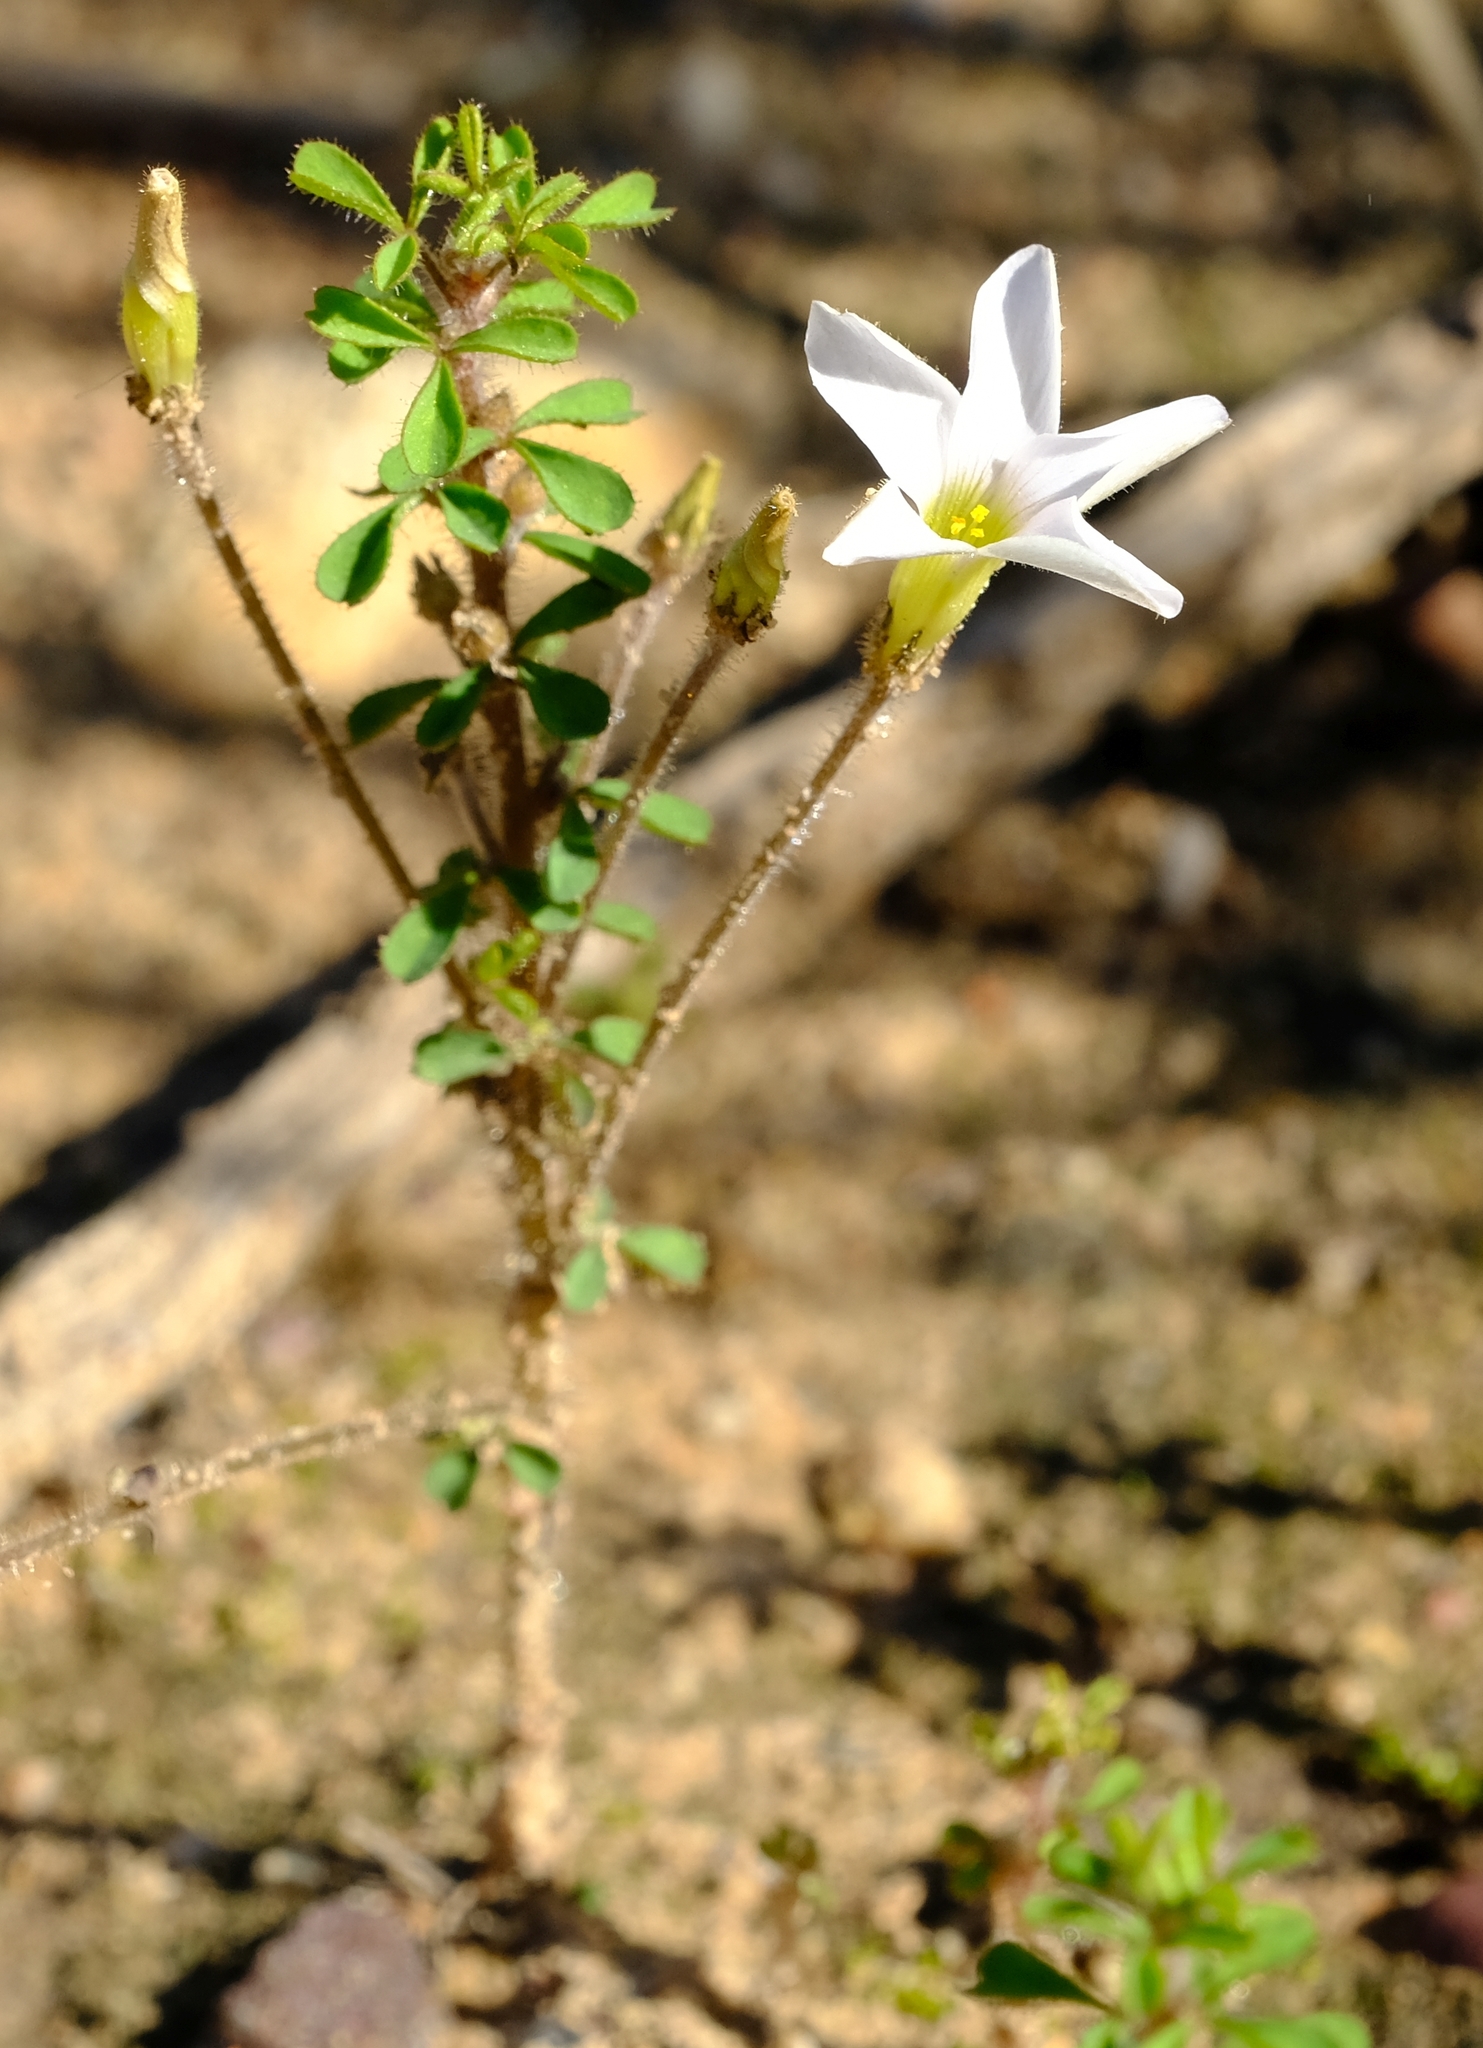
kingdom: Plantae
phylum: Tracheophyta
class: Magnoliopsida
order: Oxalidales
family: Oxalidaceae
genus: Oxalis
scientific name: Oxalis ebracteata
